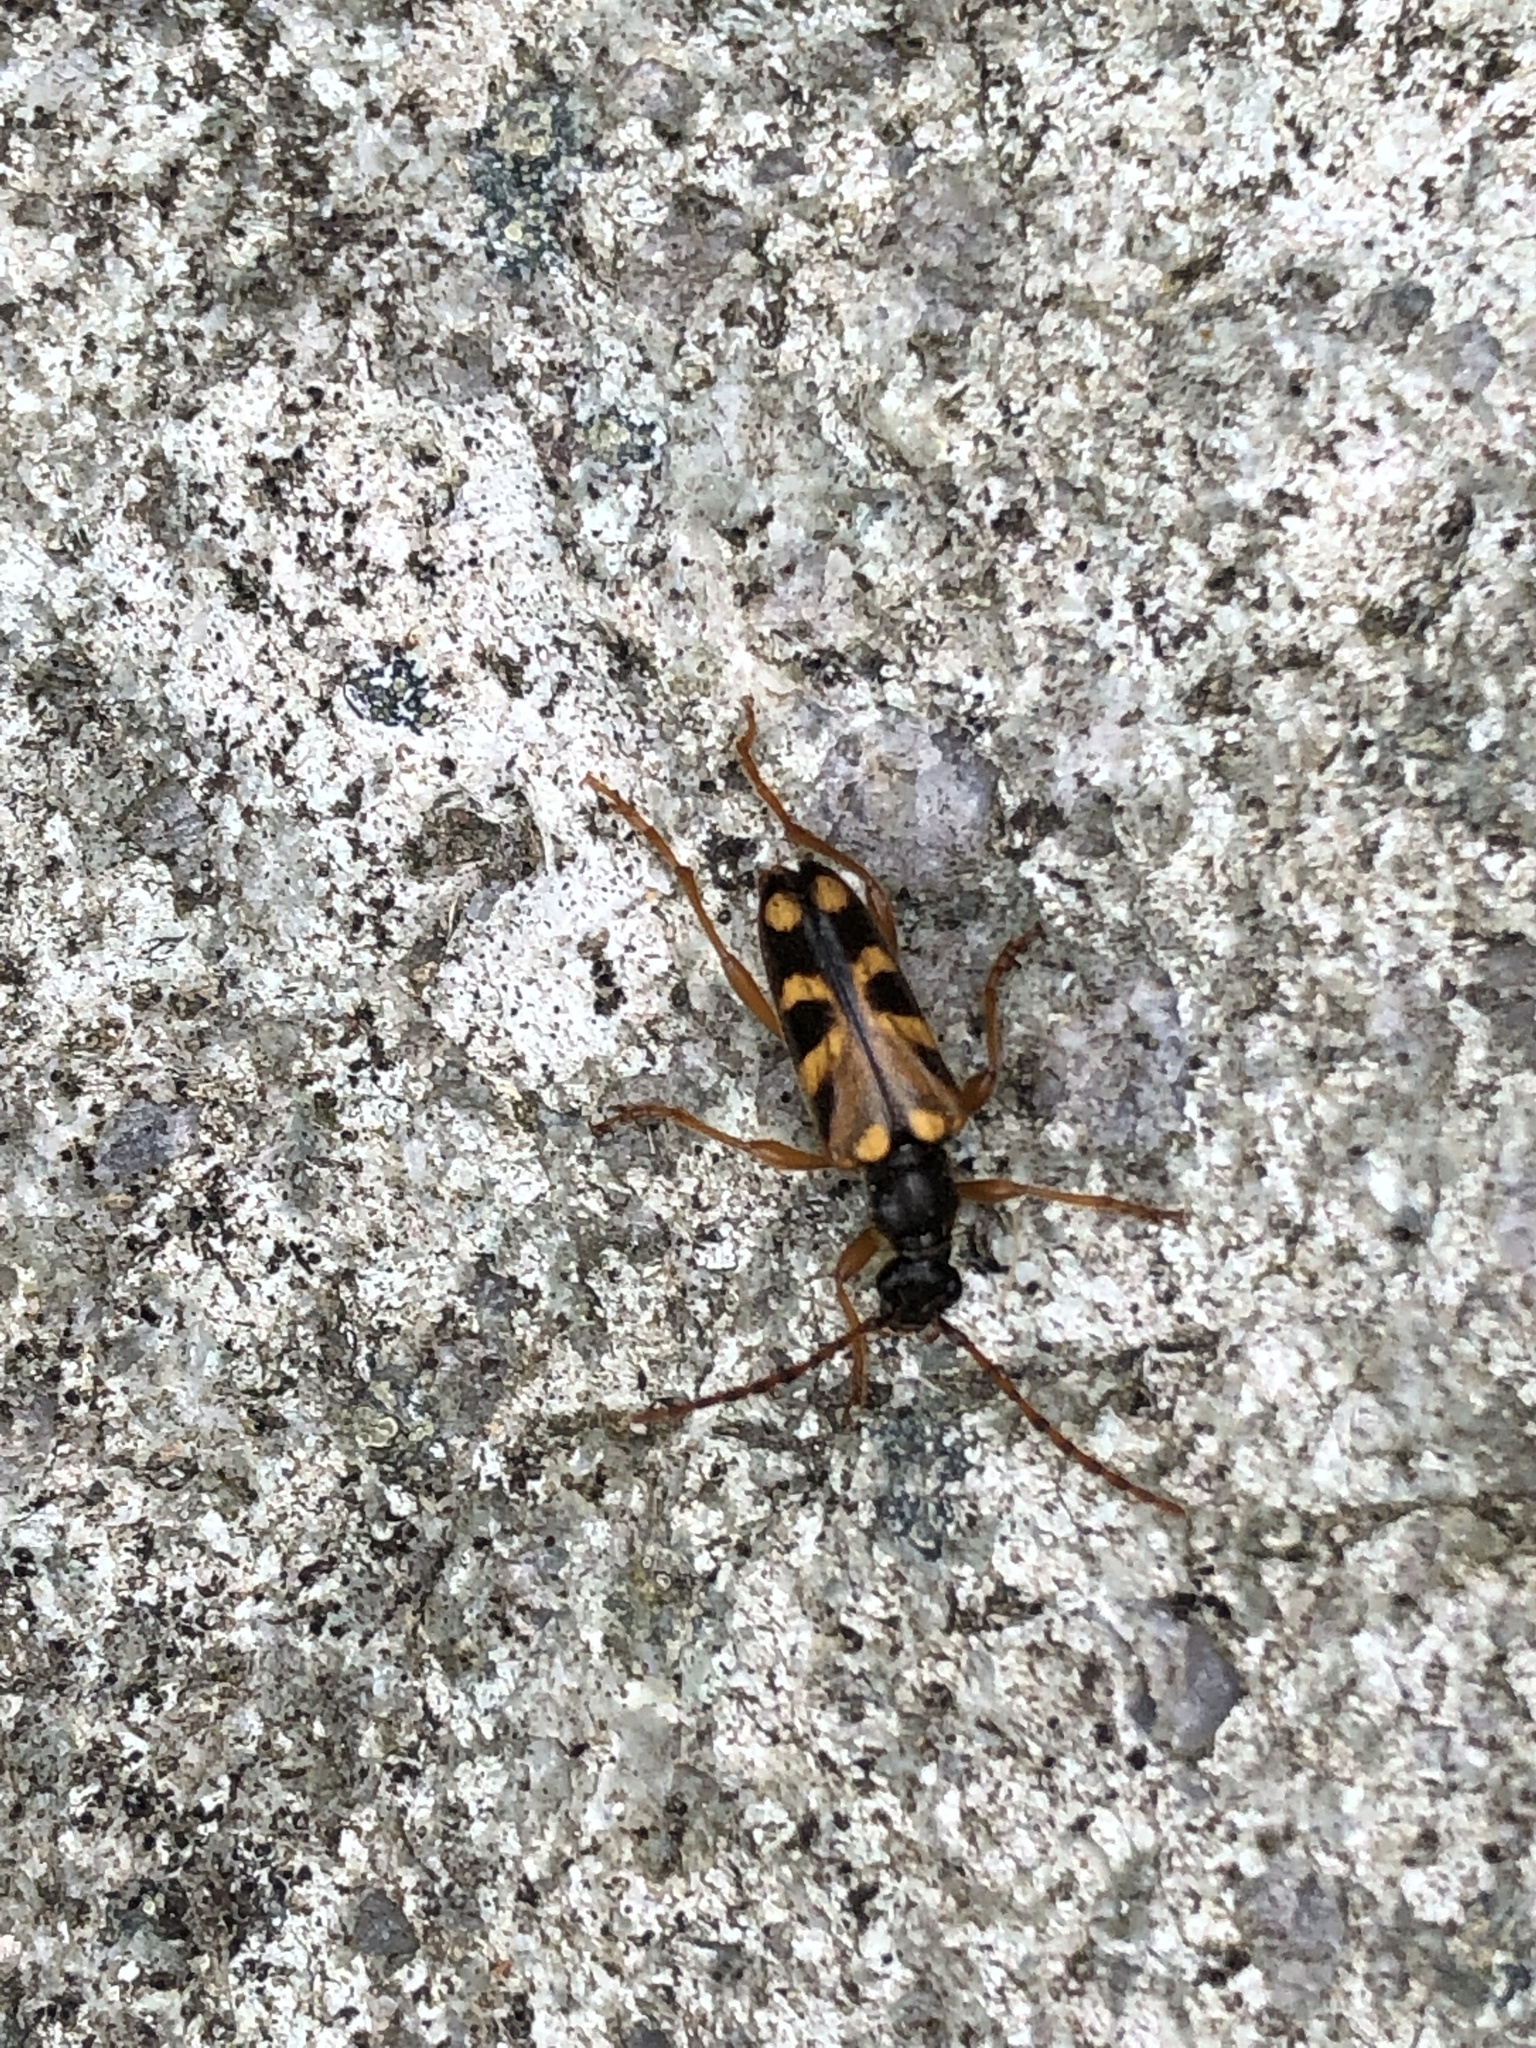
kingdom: Animalia
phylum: Arthropoda
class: Insecta
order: Coleoptera
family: Cerambycidae
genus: Xestoleptura
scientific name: Xestoleptura crassipes
